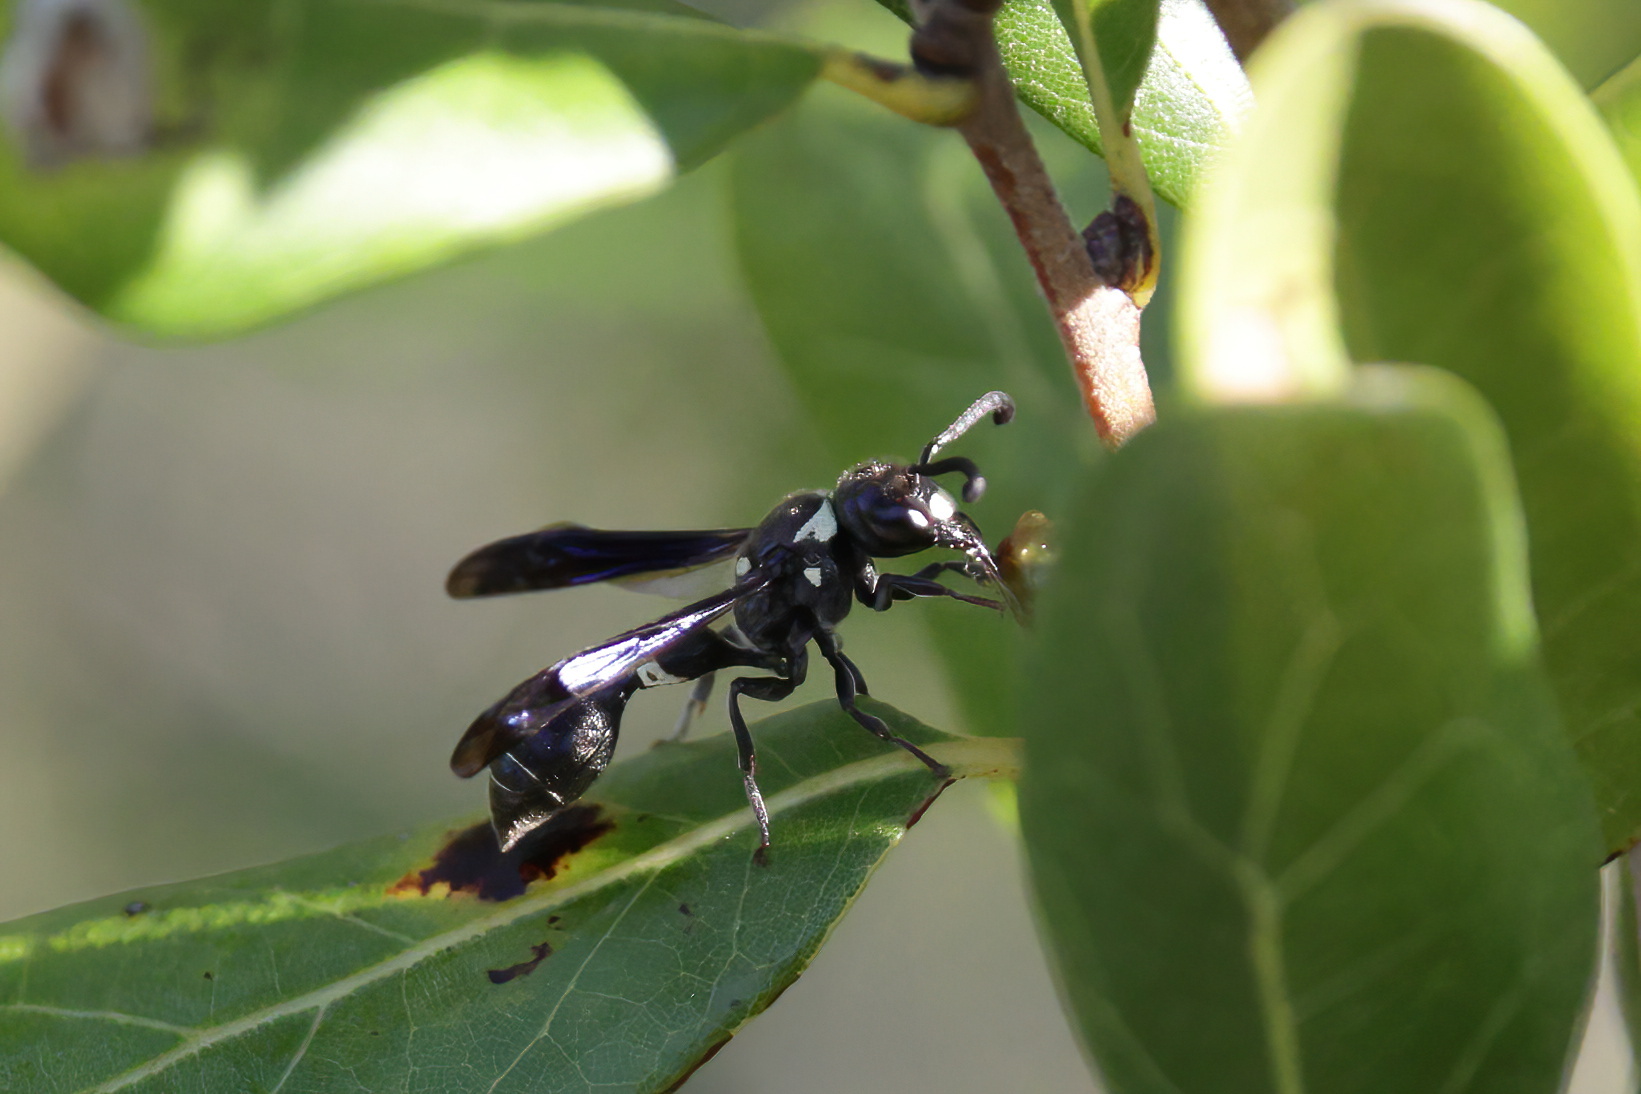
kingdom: Animalia
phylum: Arthropoda
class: Insecta
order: Hymenoptera
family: Eumenidae
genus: Zethus
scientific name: Zethus spinipes
